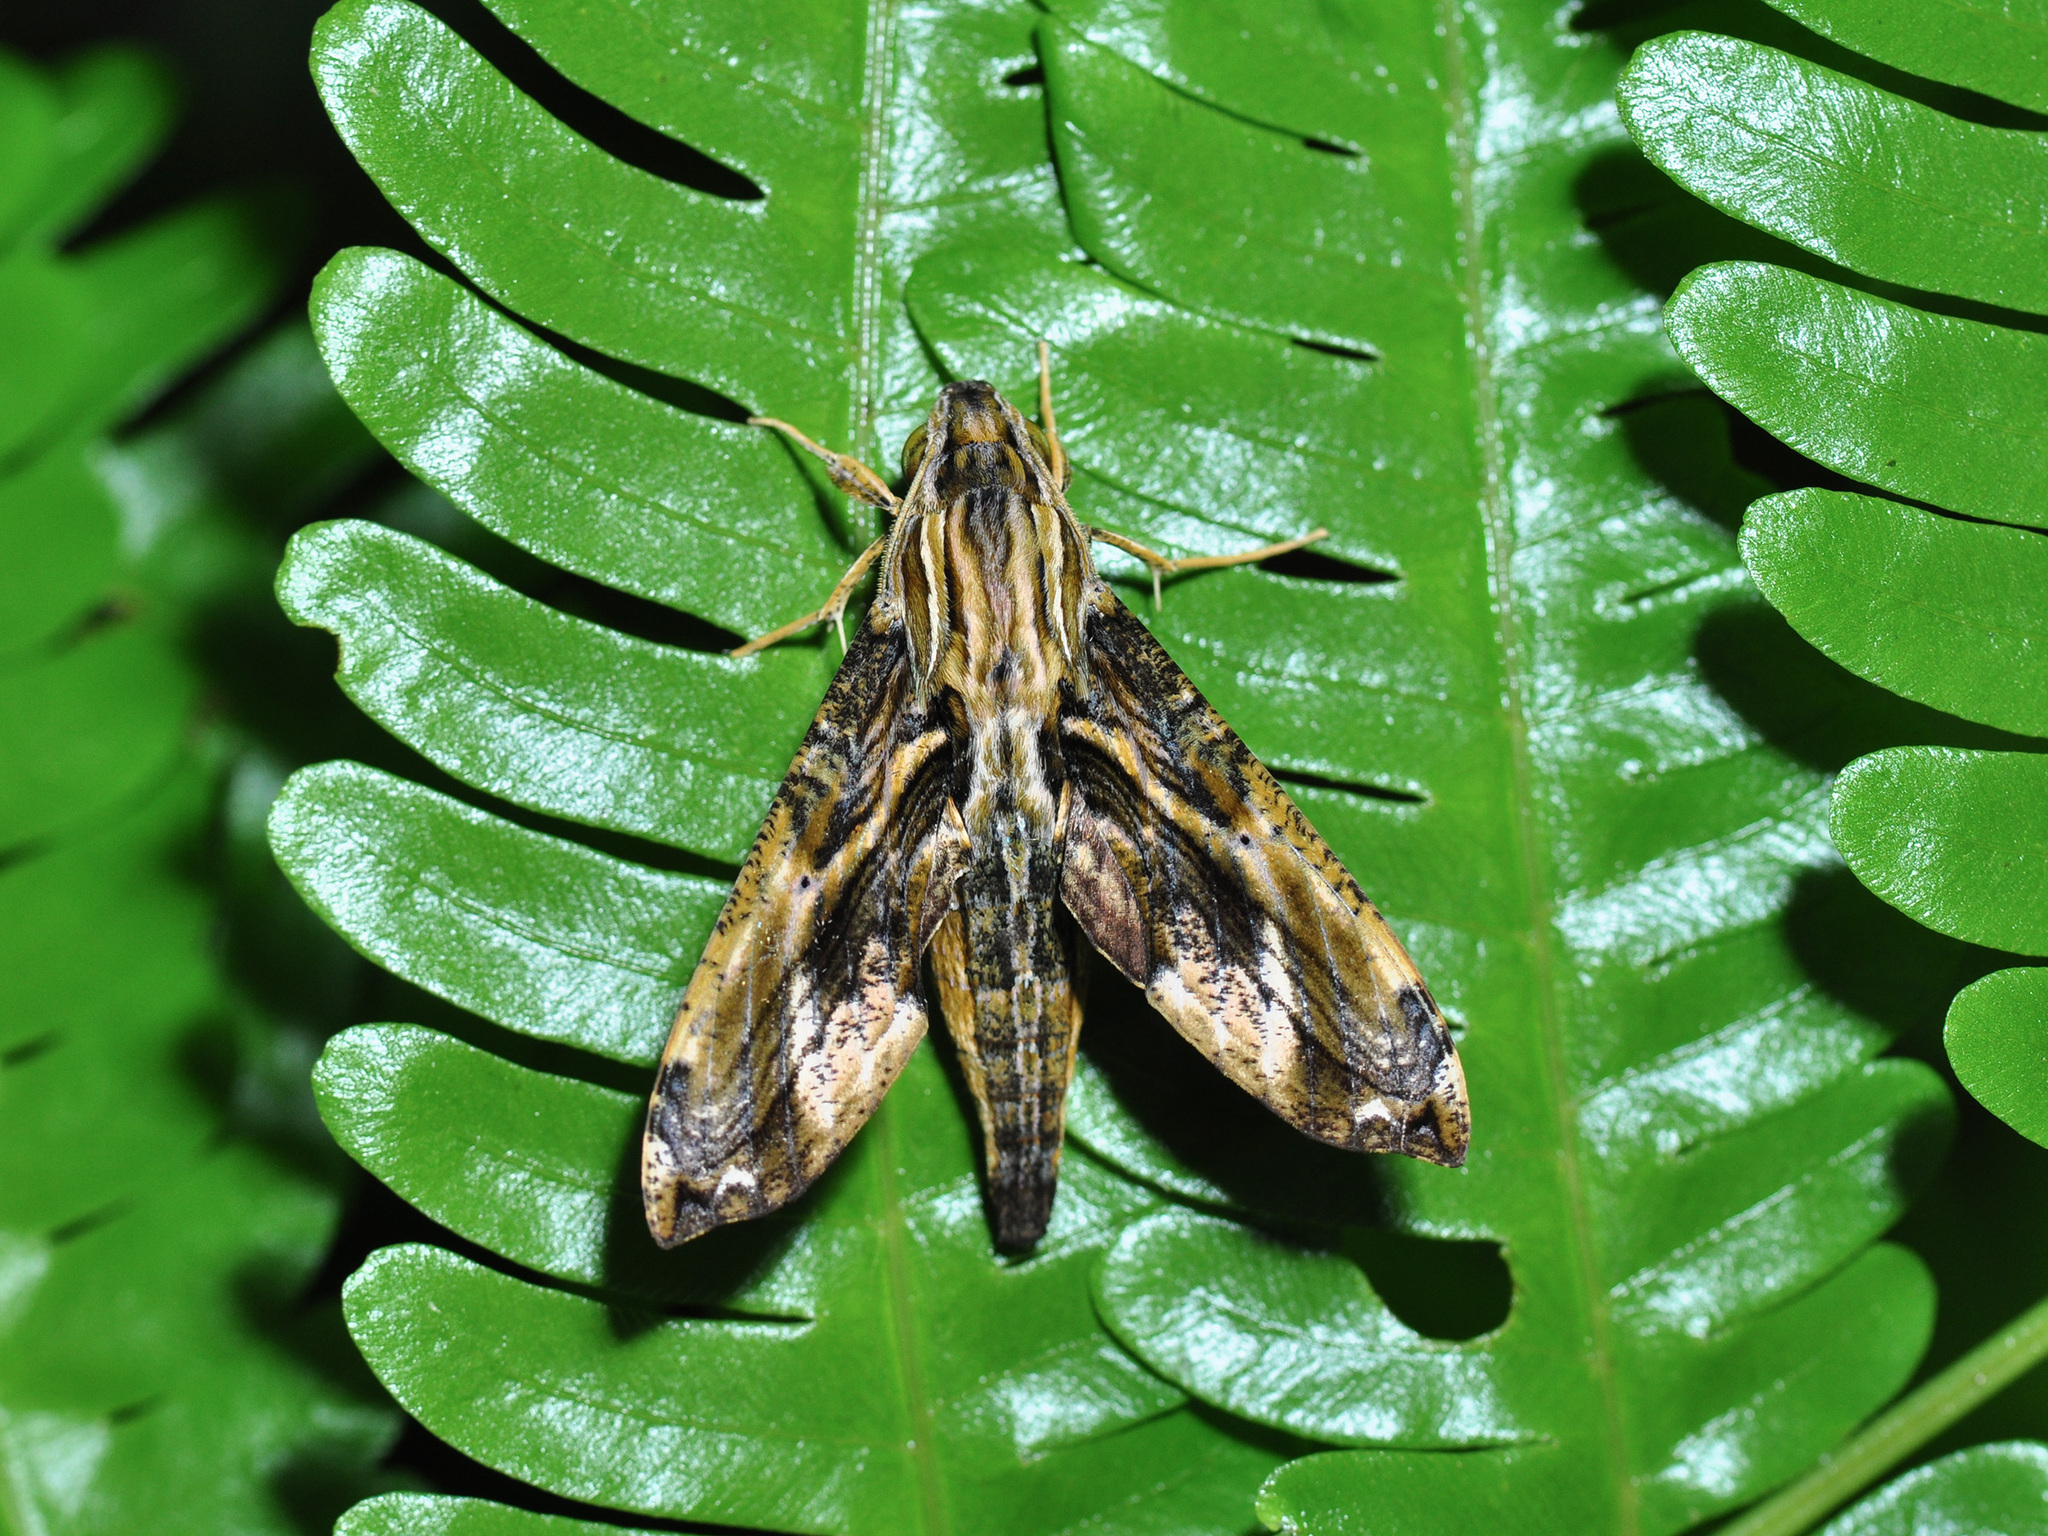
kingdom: Animalia
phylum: Arthropoda
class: Insecta
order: Lepidoptera
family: Sphingidae
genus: Eupanacra
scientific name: Eupanacra variolosa
